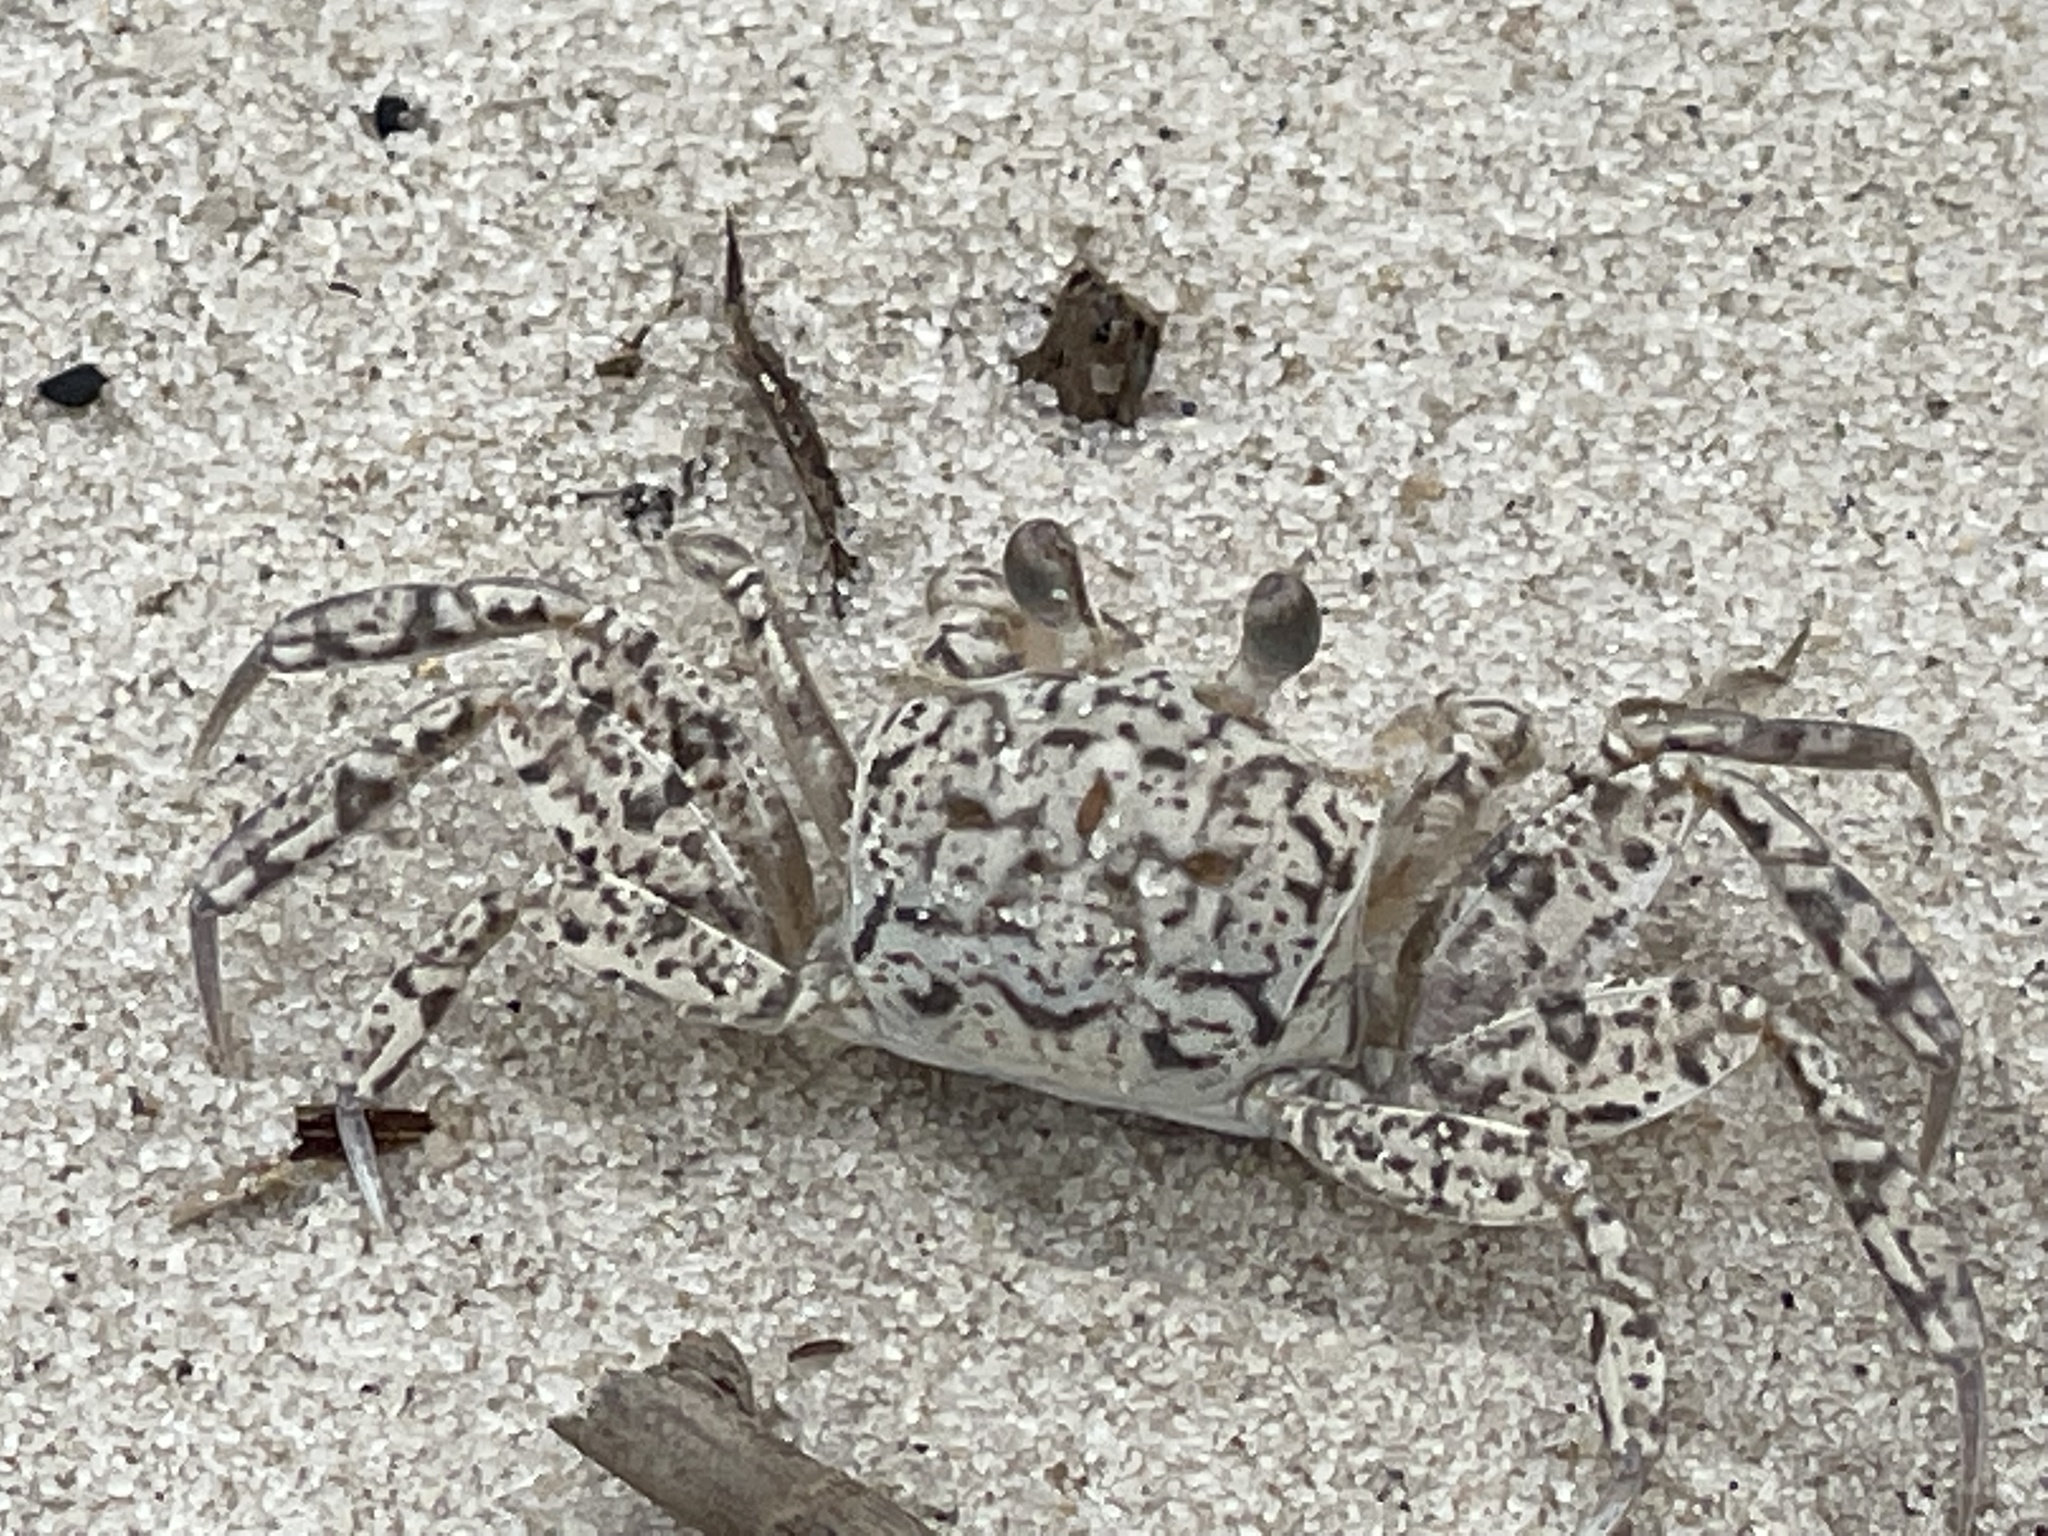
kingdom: Animalia
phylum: Arthropoda
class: Malacostraca
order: Decapoda
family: Ocypodidae
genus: Ocypode
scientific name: Ocypode quadrata
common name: Ghost crab
